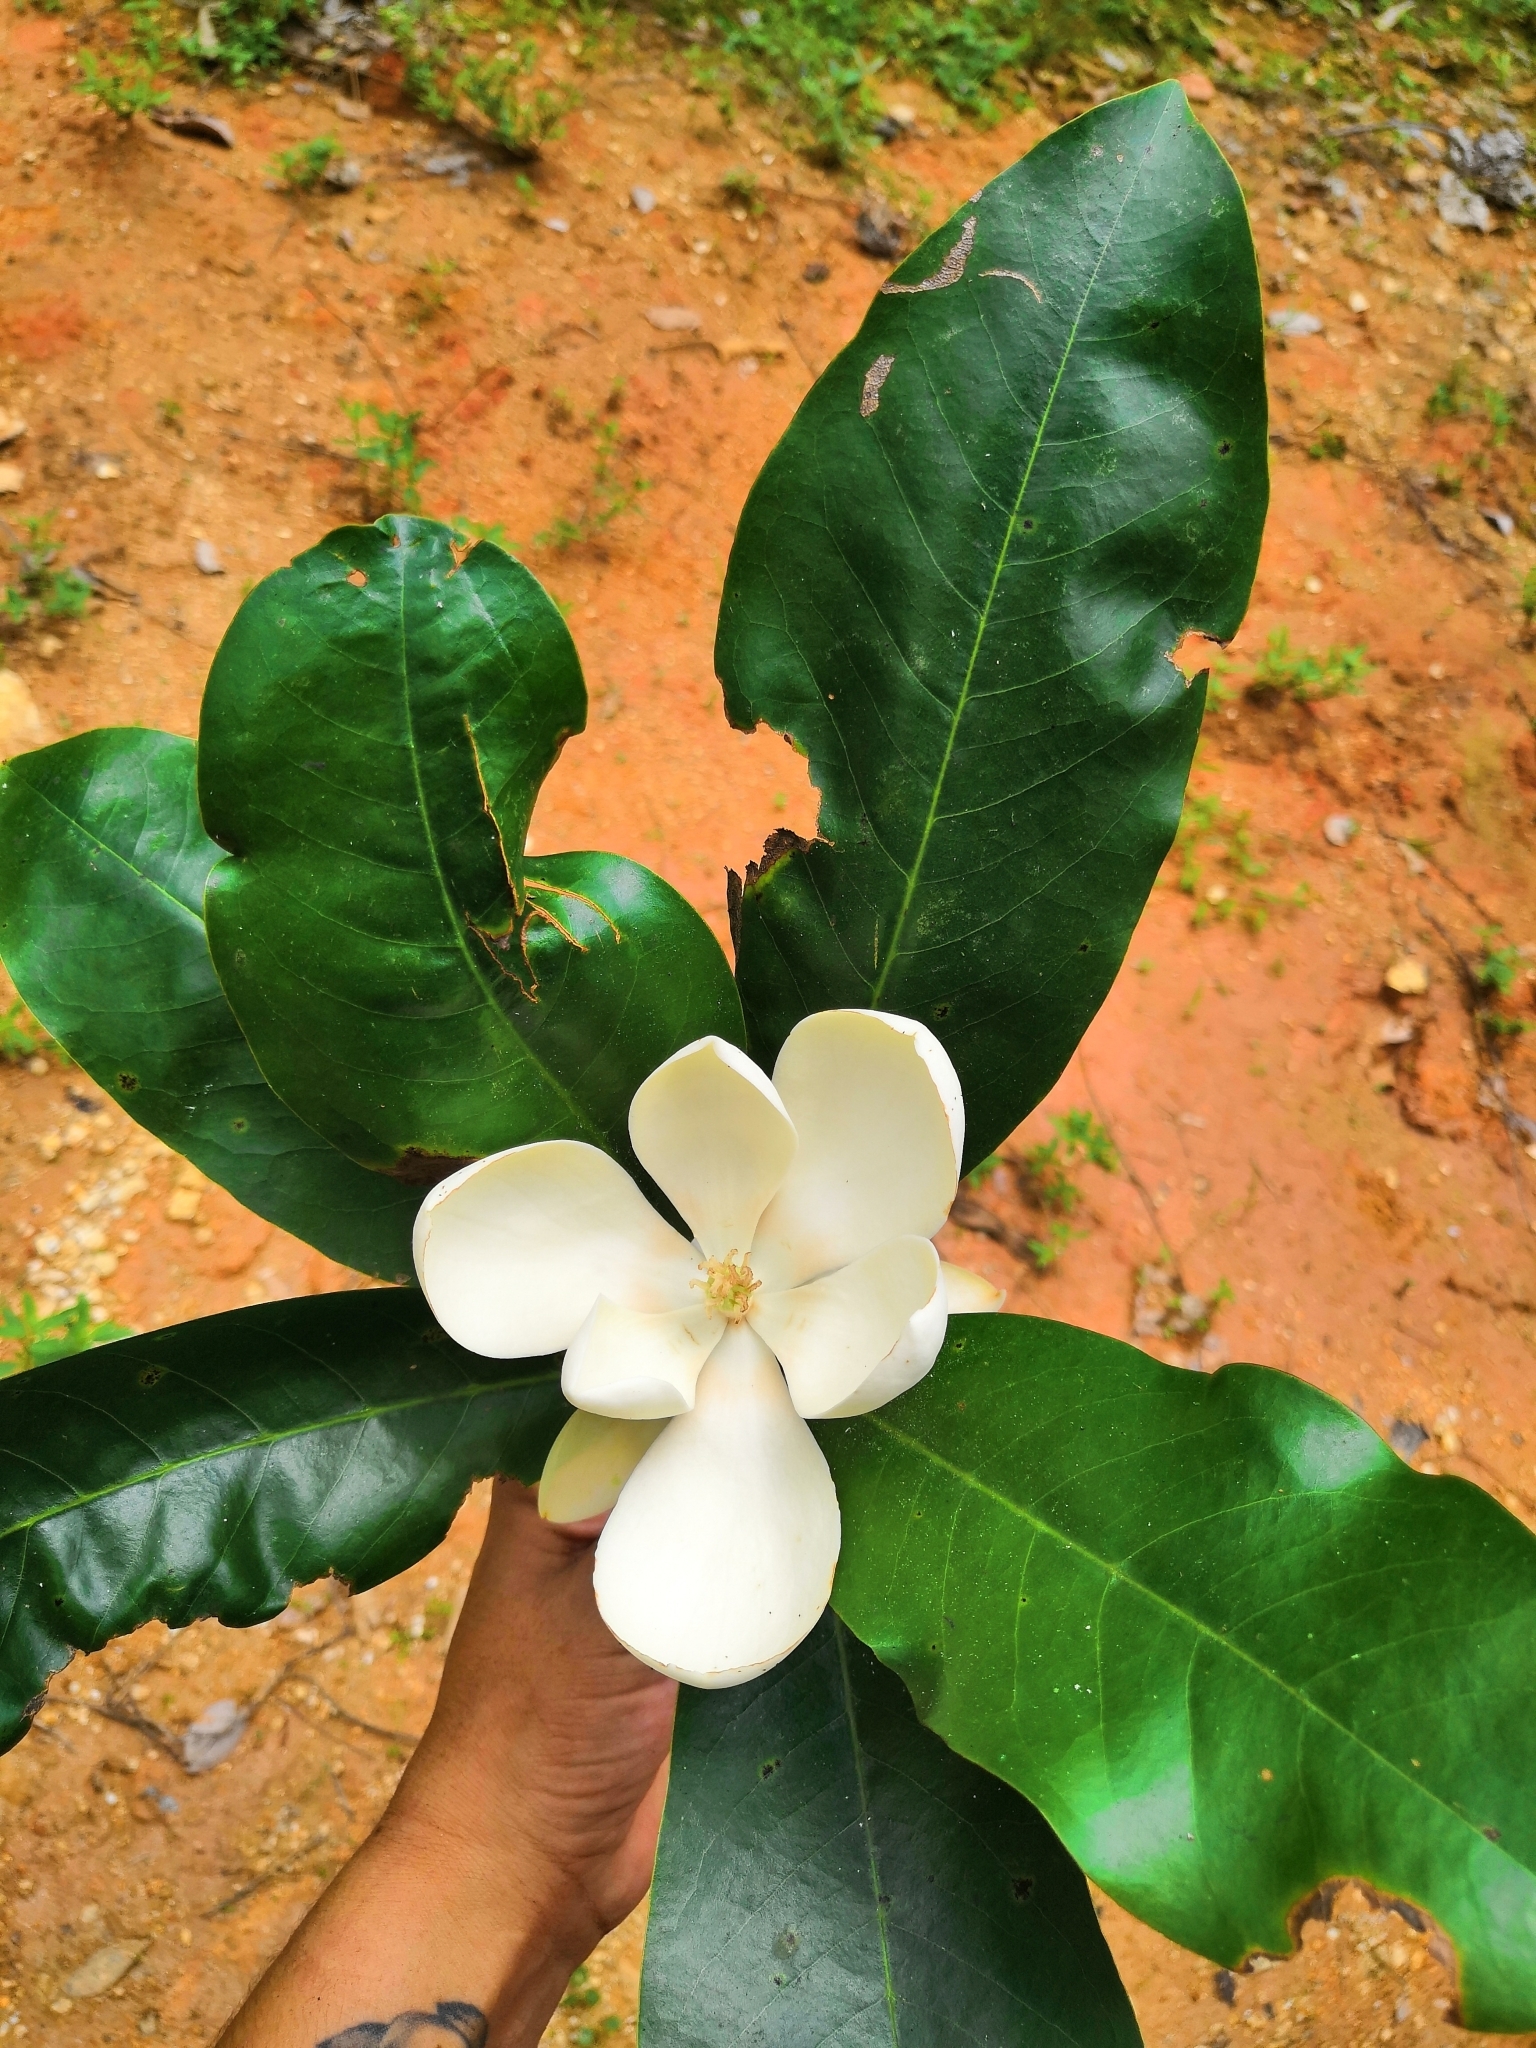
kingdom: Plantae
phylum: Tracheophyta
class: Magnoliopsida
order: Magnoliales
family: Magnoliaceae
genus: Magnolia
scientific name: Magnolia pacifica
